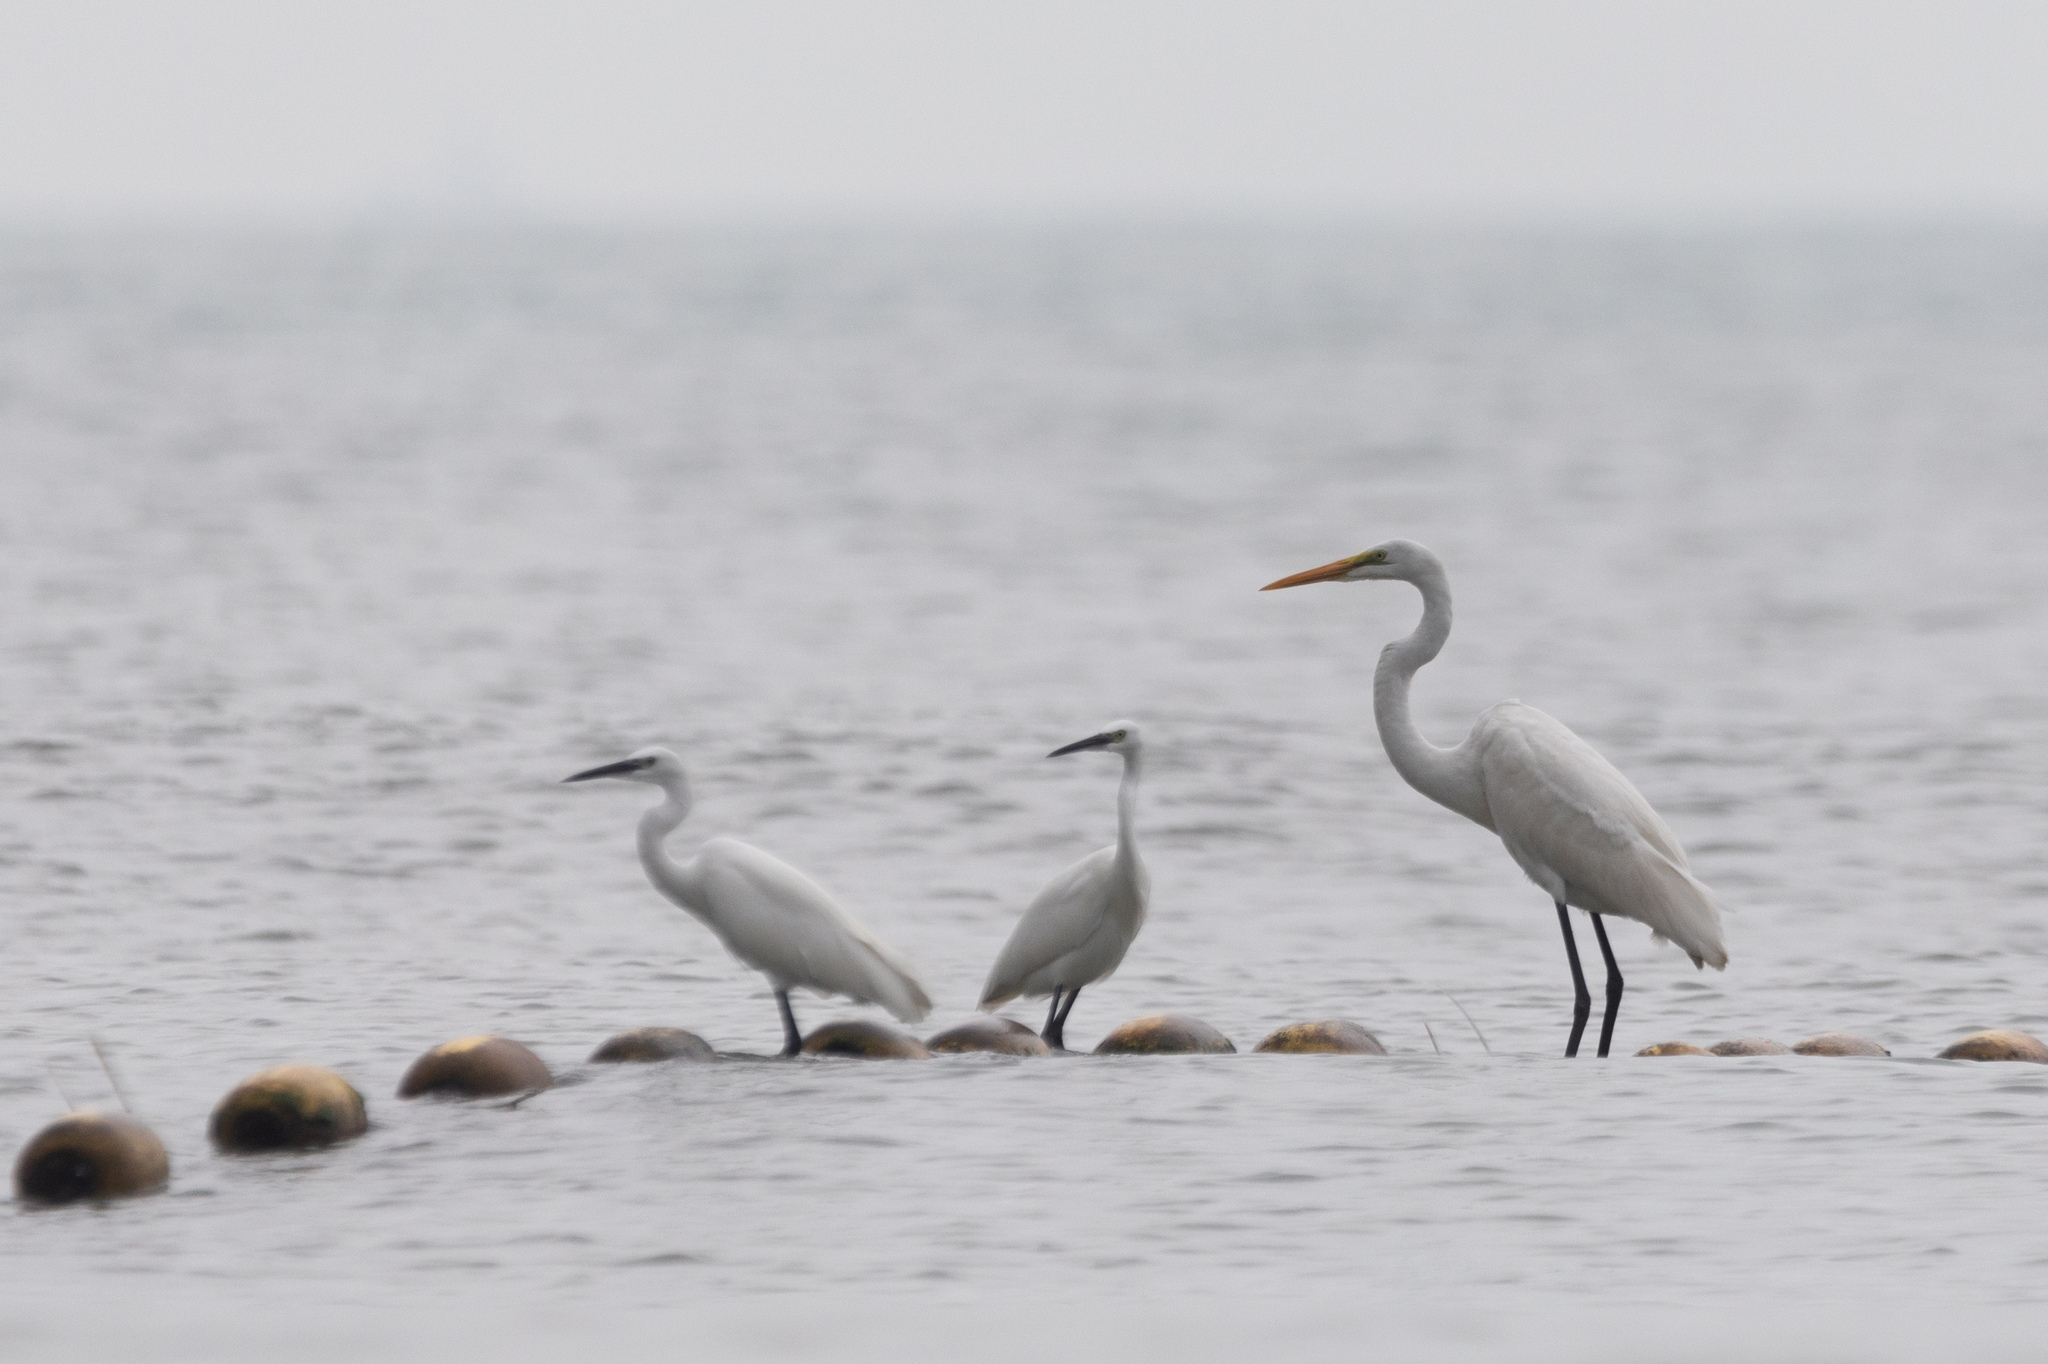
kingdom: Animalia
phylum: Chordata
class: Aves
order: Pelecaniformes
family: Ardeidae
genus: Egretta
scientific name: Egretta garzetta
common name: Little egret
